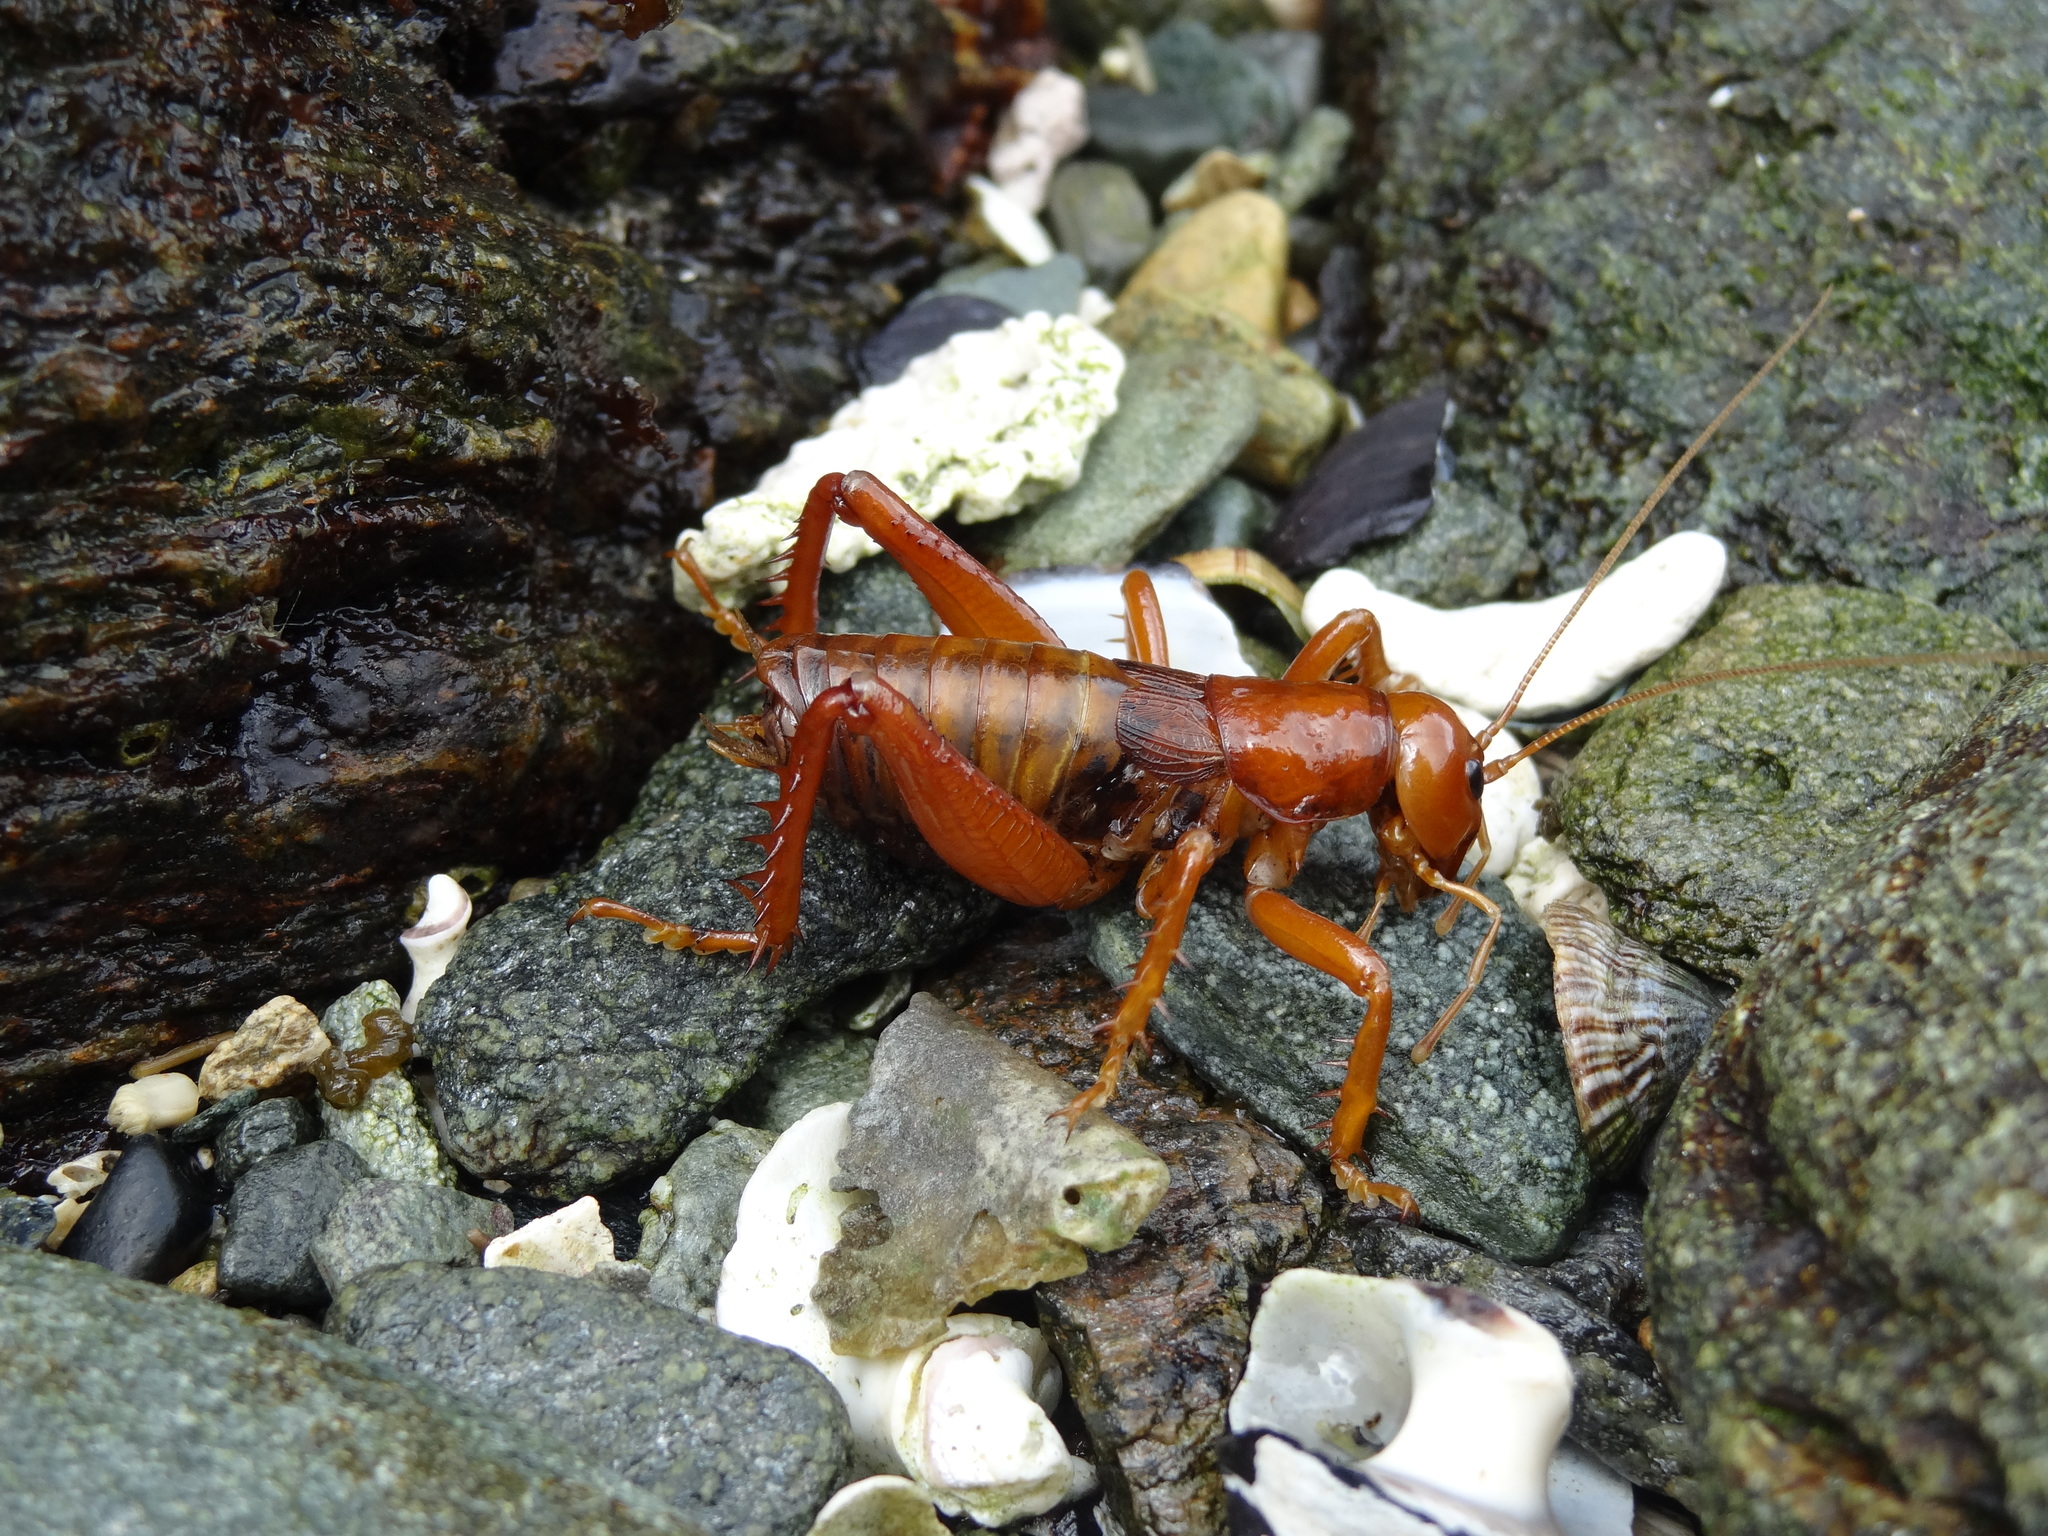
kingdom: Animalia
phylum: Arthropoda
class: Insecta
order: Orthoptera
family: Anostostomatidae
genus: Cratomelus
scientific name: Cratomelus
